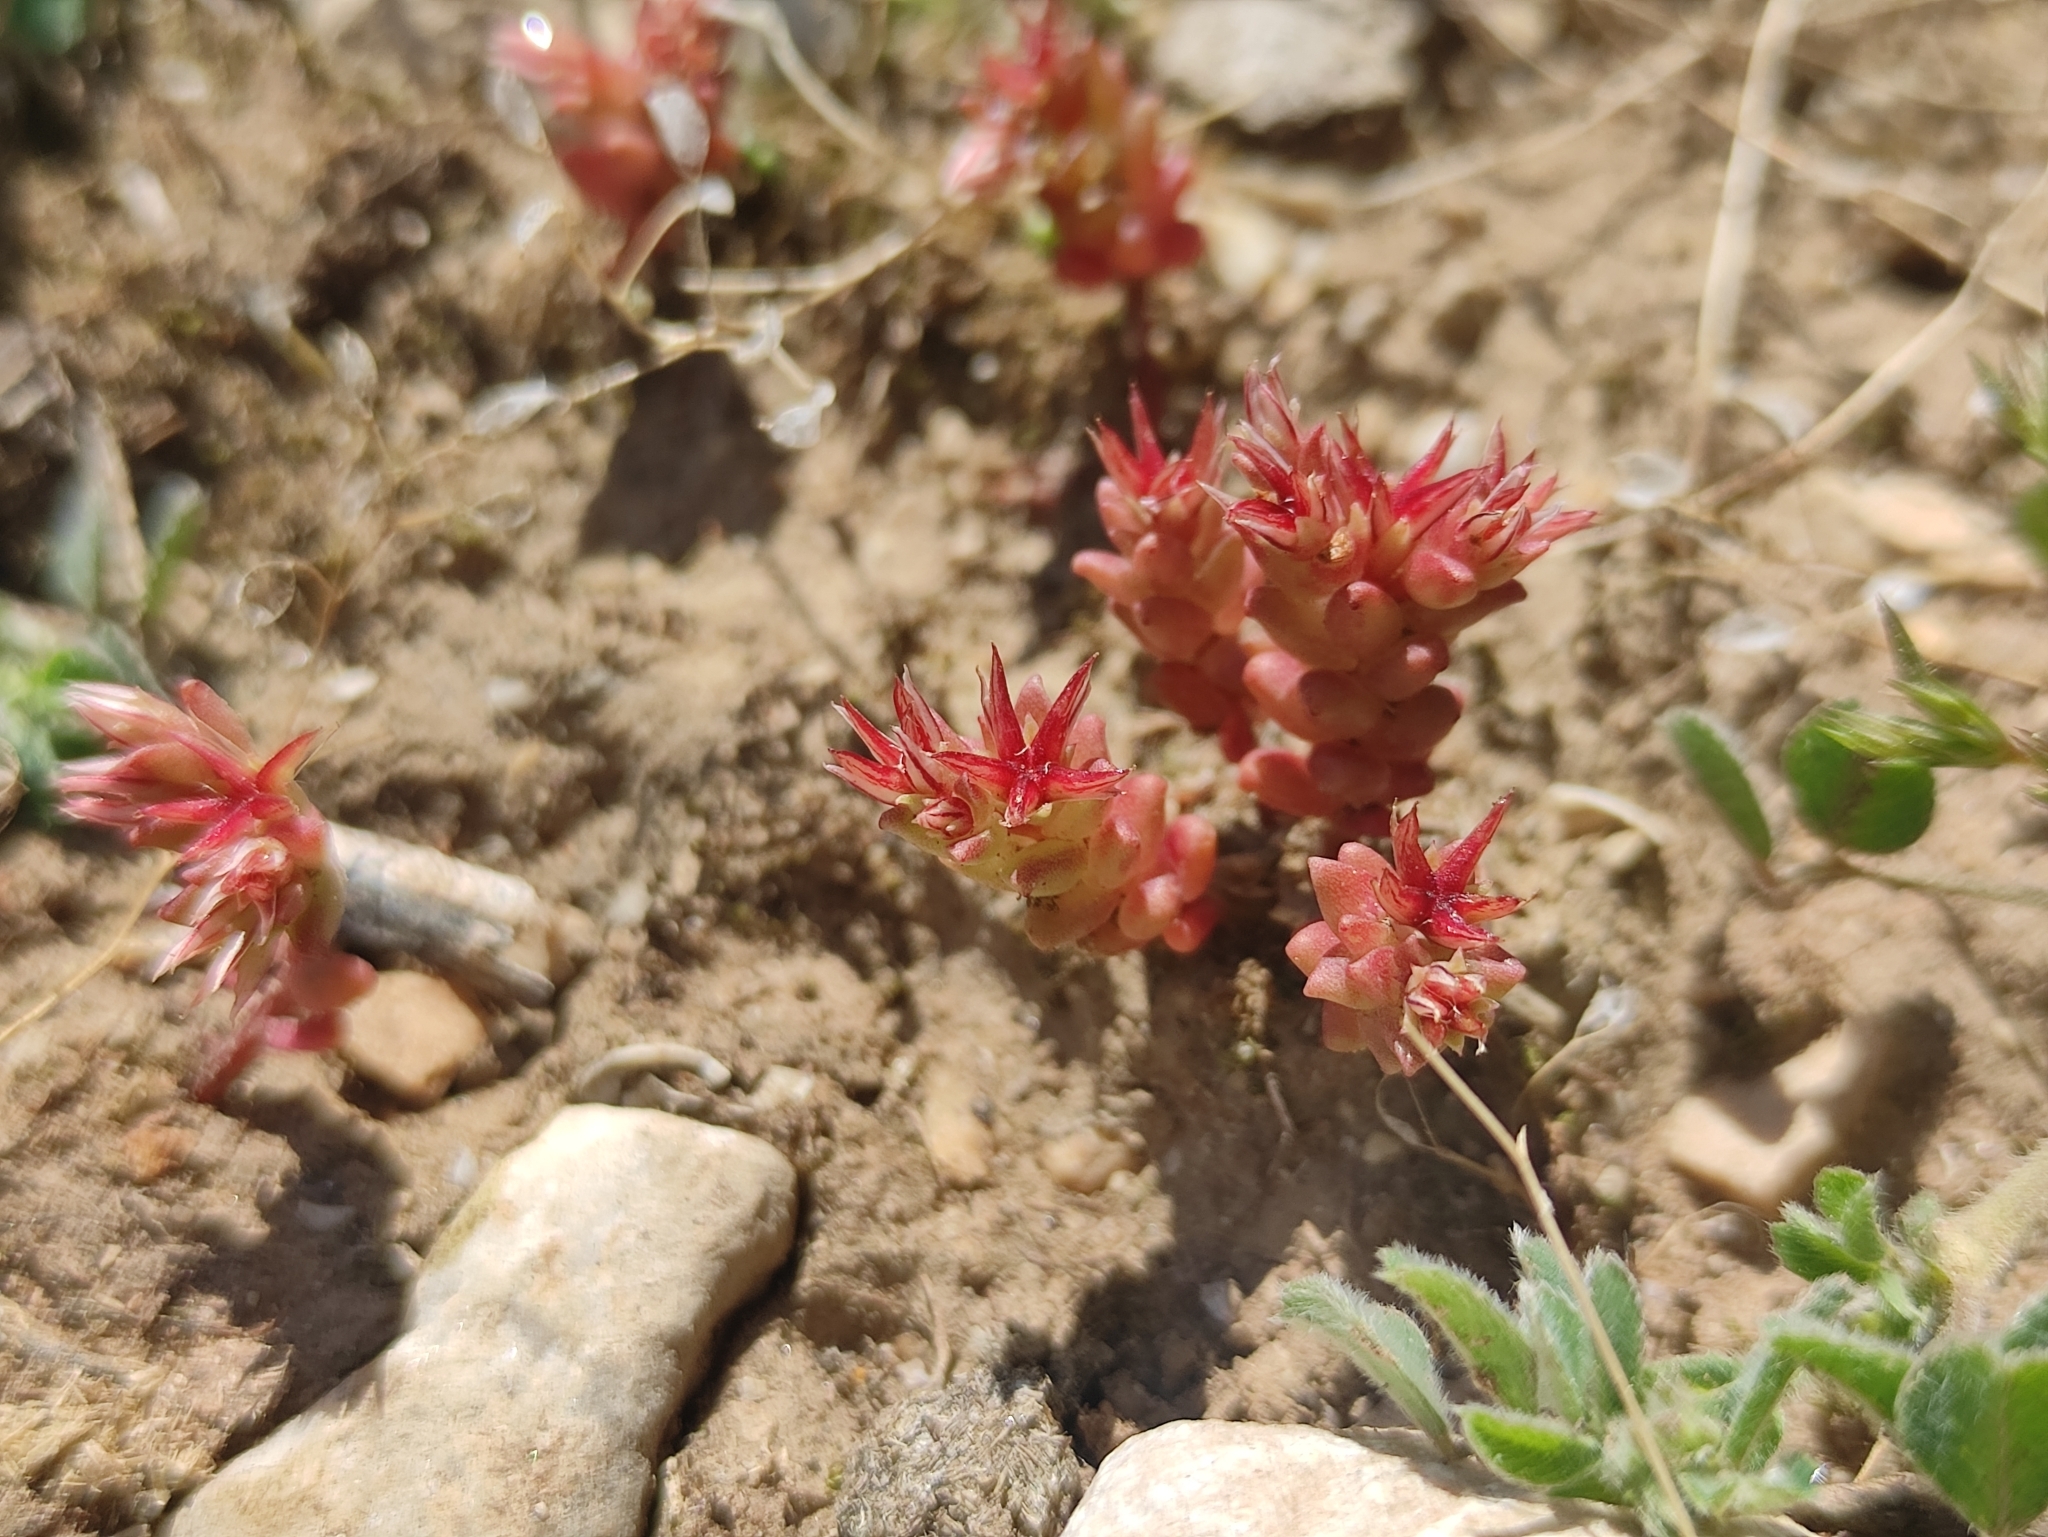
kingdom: Plantae
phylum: Tracheophyta
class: Magnoliopsida
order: Saxifragales
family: Crassulaceae
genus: Sedum
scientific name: Sedum cespitosum
